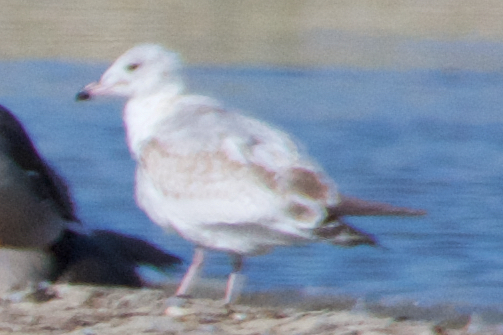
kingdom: Animalia
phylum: Chordata
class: Aves
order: Charadriiformes
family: Laridae
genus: Larus
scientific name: Larus delawarensis
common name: Ring-billed gull
